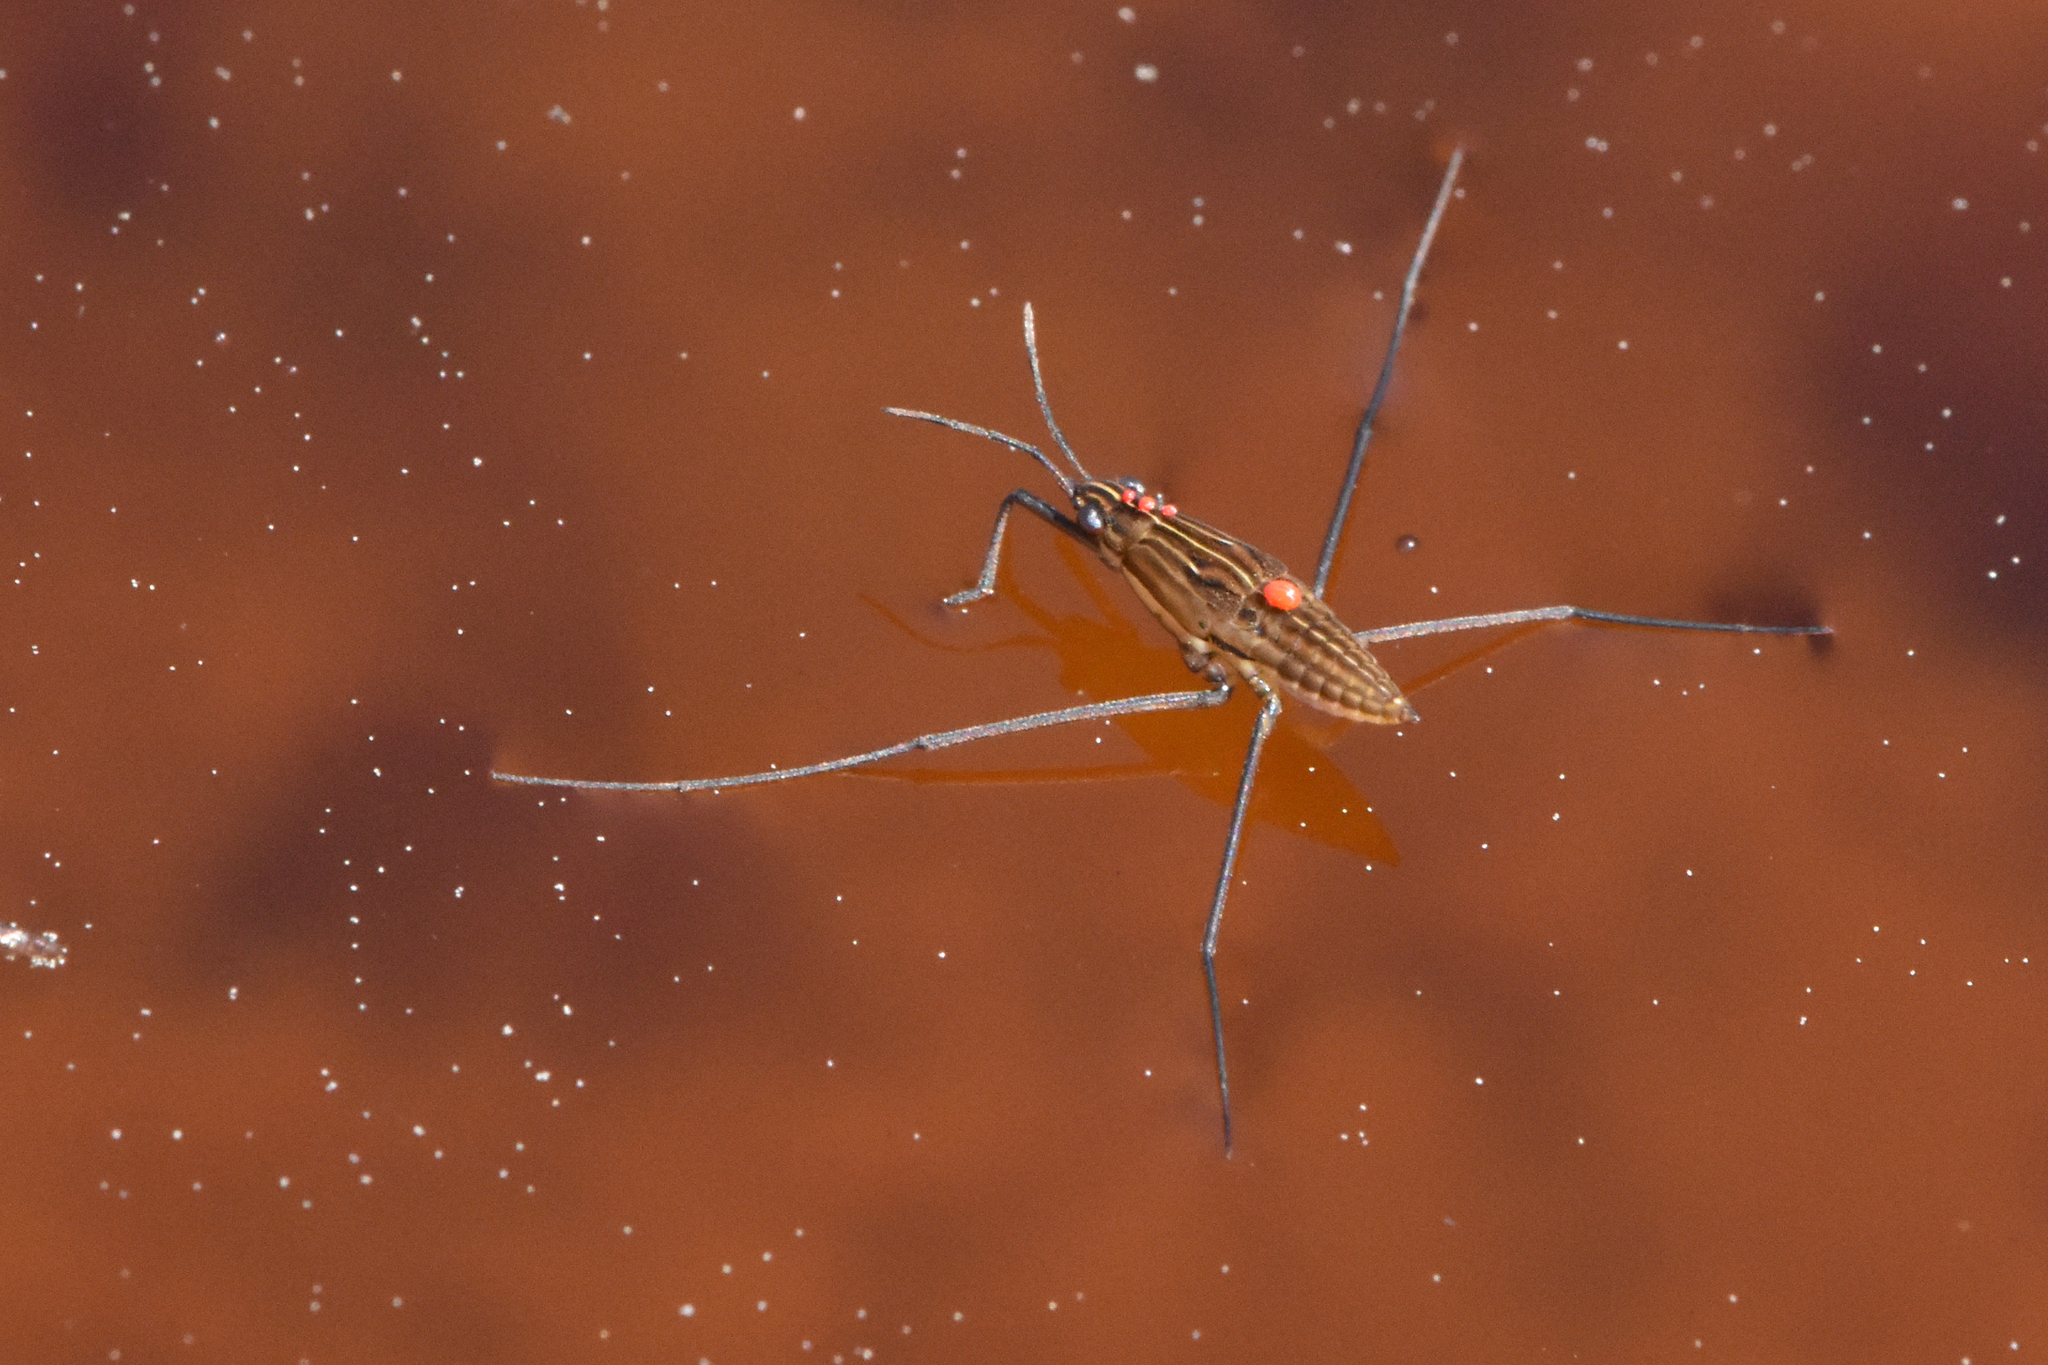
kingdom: Animalia
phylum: Arthropoda
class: Insecta
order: Hemiptera
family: Gerridae
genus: Limnoporus
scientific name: Limnoporus notabilis
